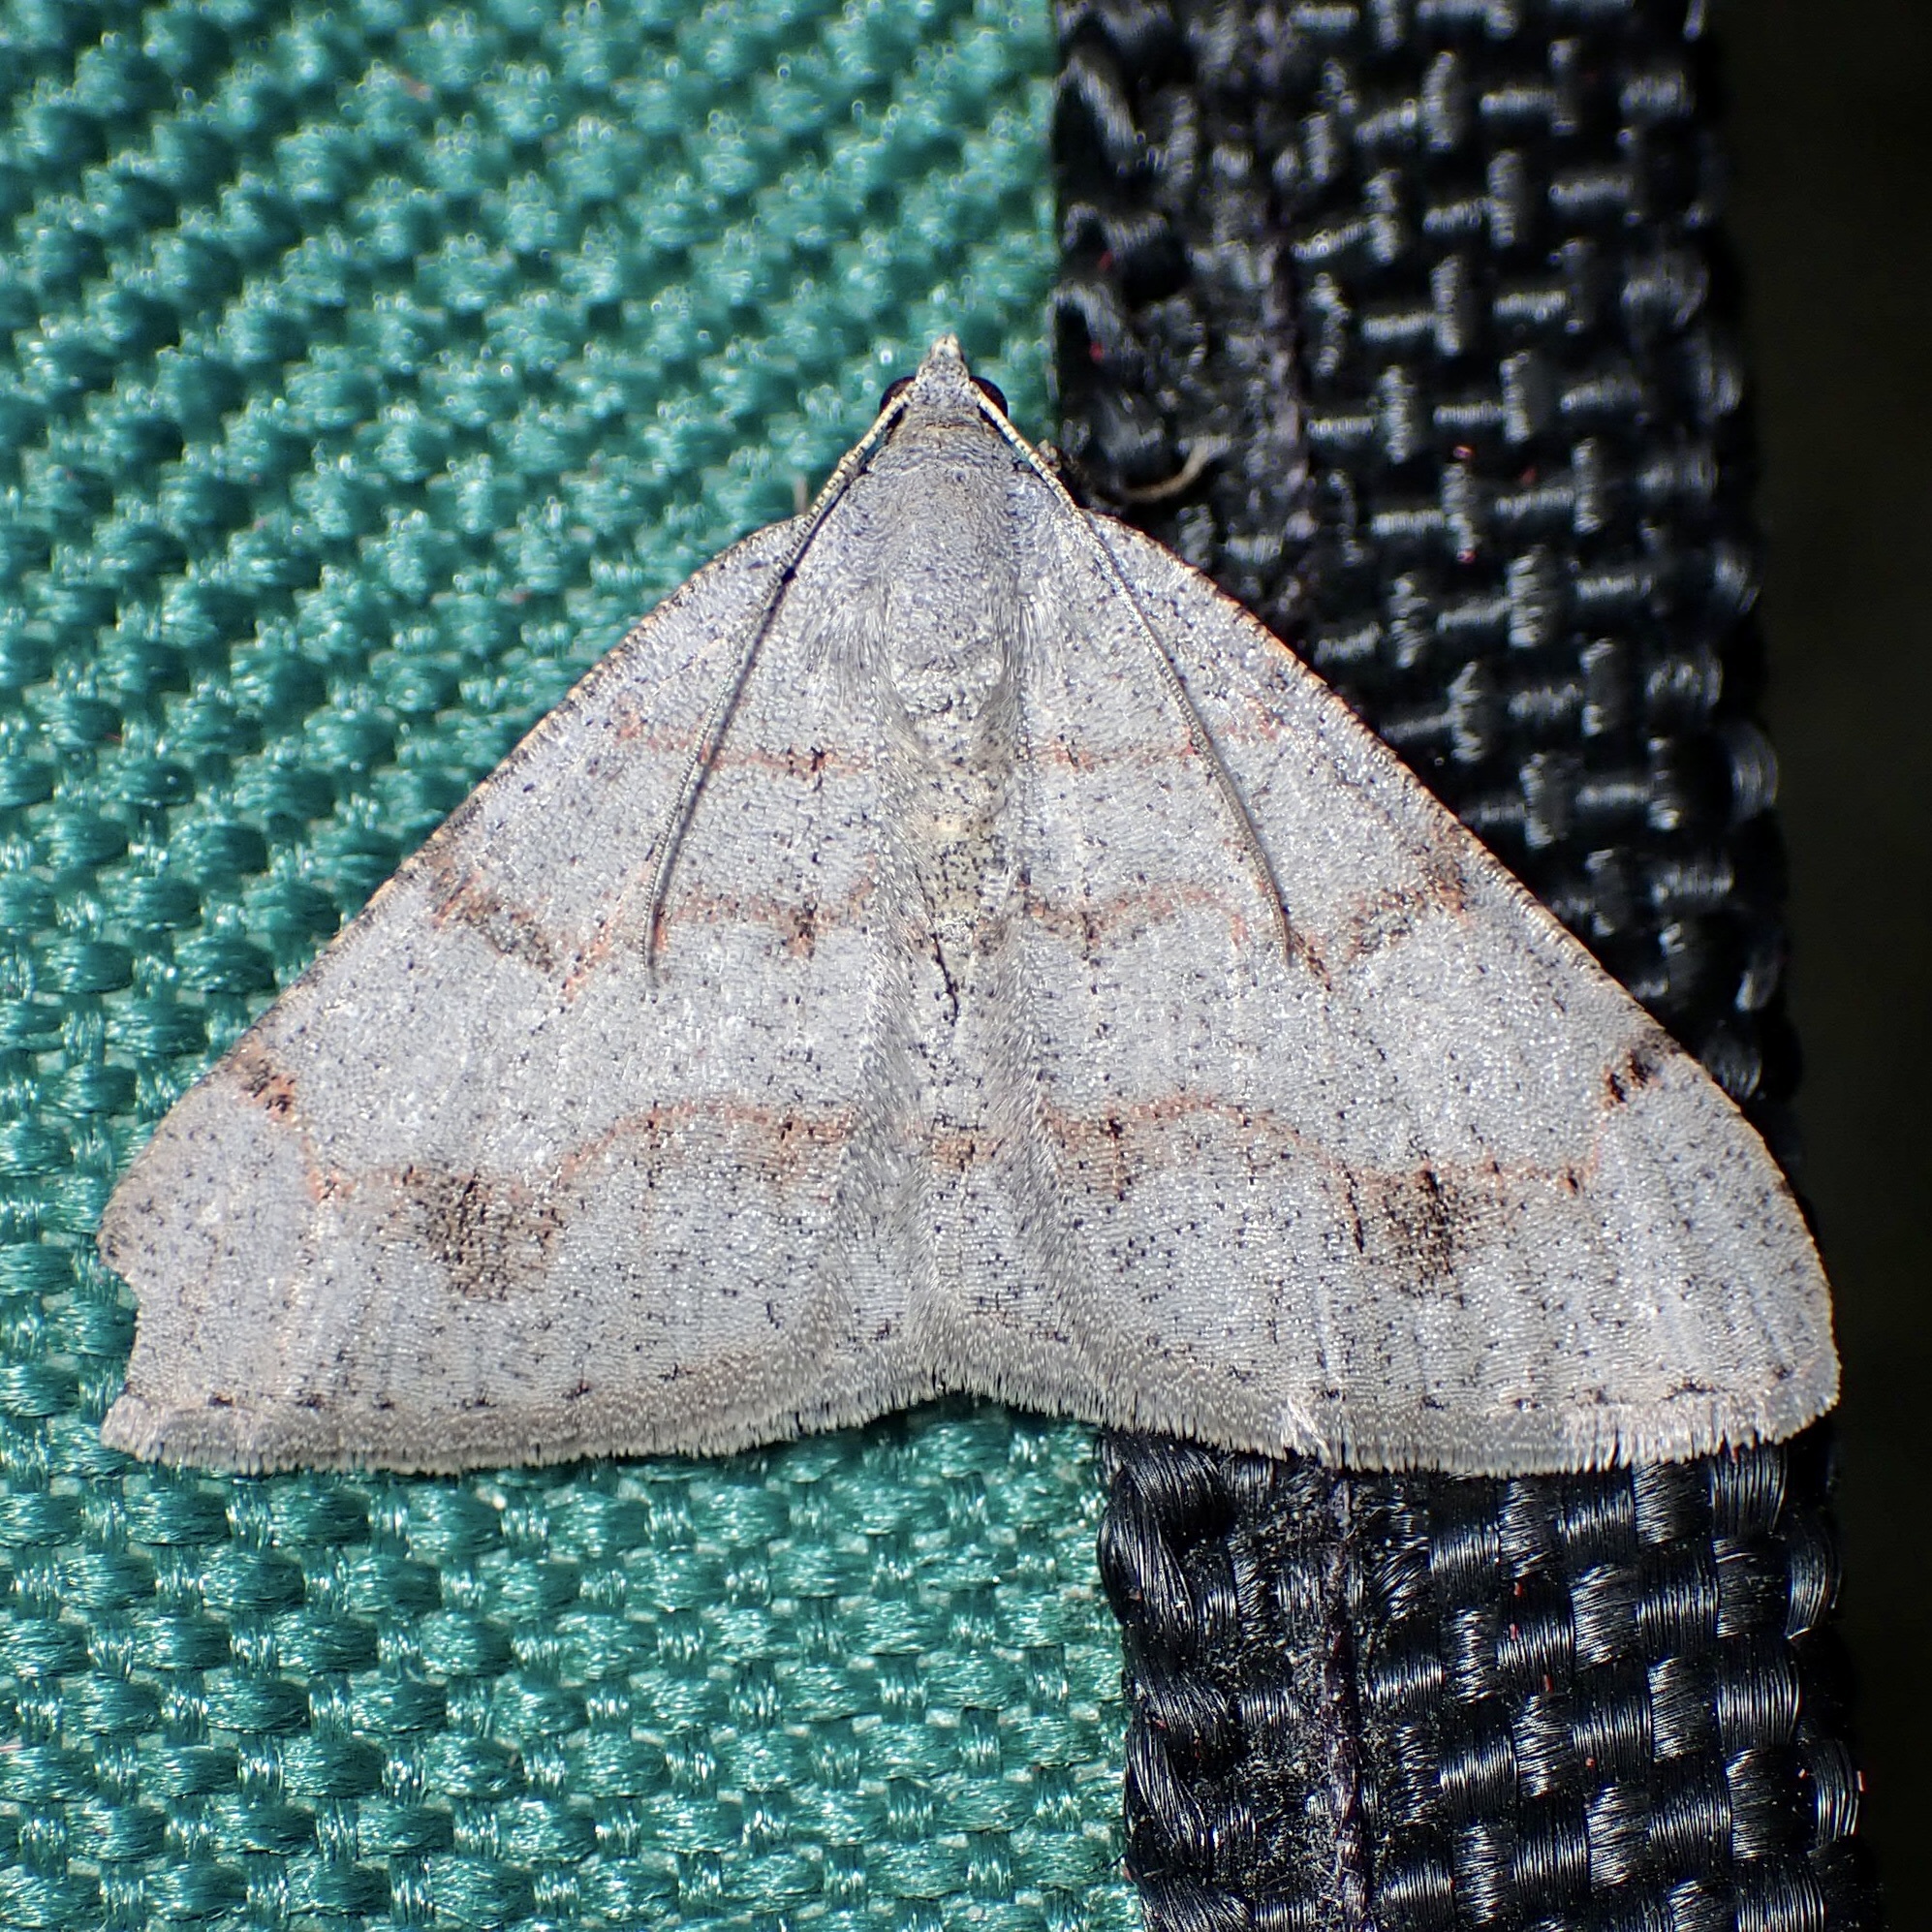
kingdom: Animalia
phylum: Arthropoda
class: Insecta
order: Lepidoptera
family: Geometridae
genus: Digrammia
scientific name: Digrammia yavapai
